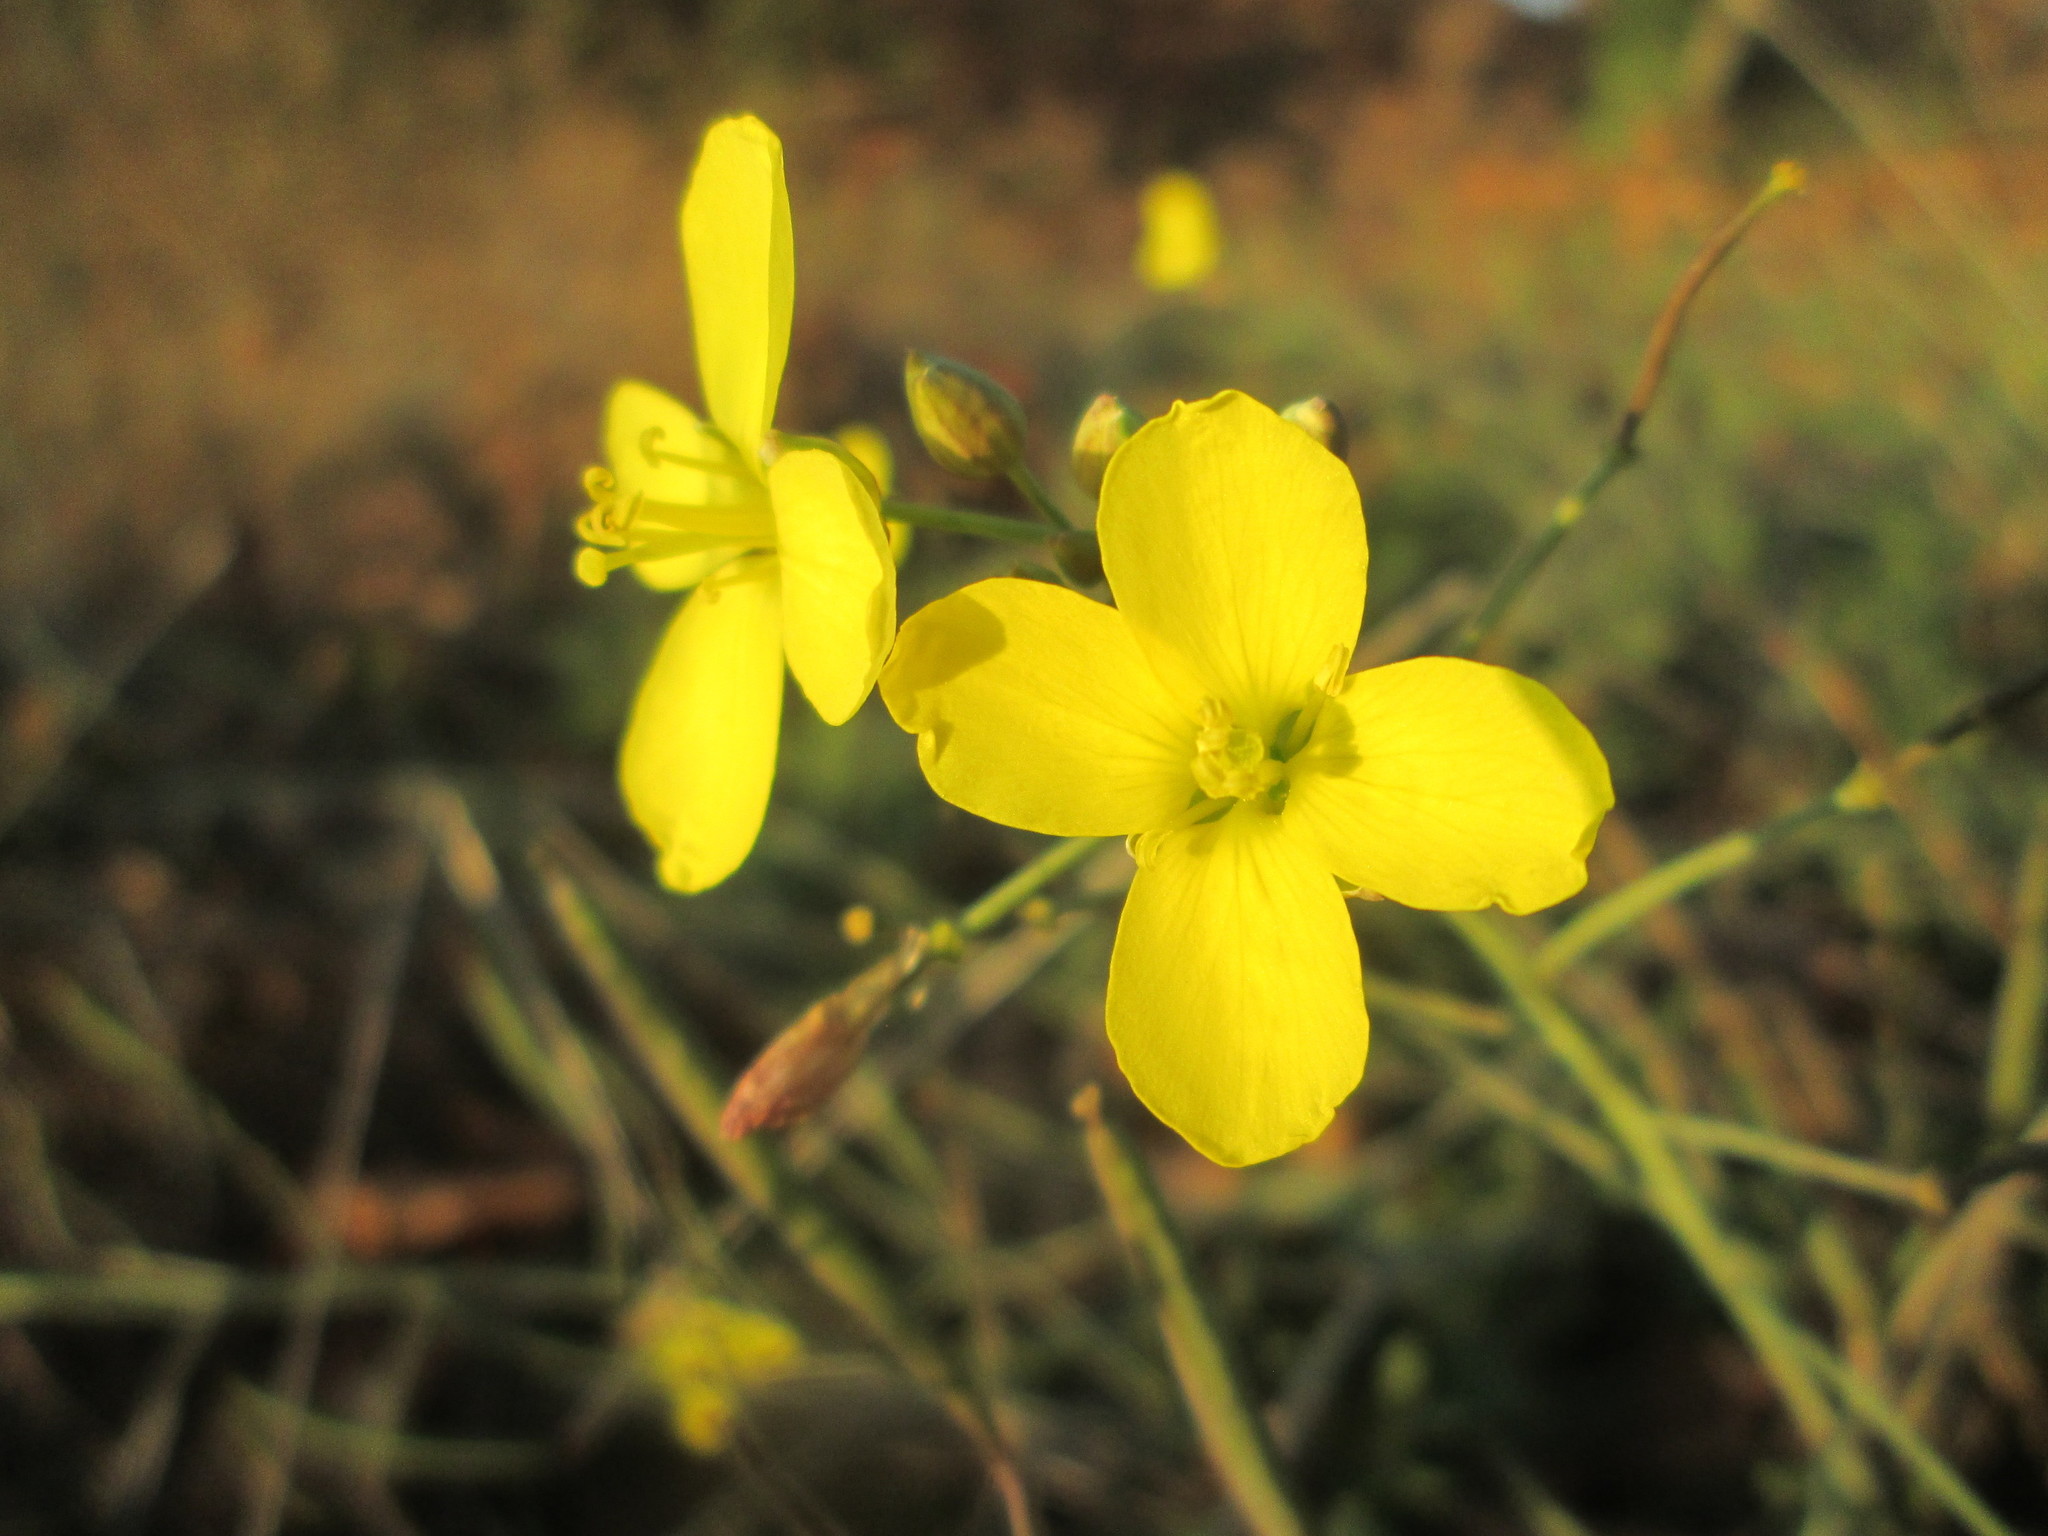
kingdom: Plantae
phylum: Tracheophyta
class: Magnoliopsida
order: Brassicales
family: Brassicaceae
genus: Diplotaxis
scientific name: Diplotaxis tenuifolia
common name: Perennial wall-rocket
